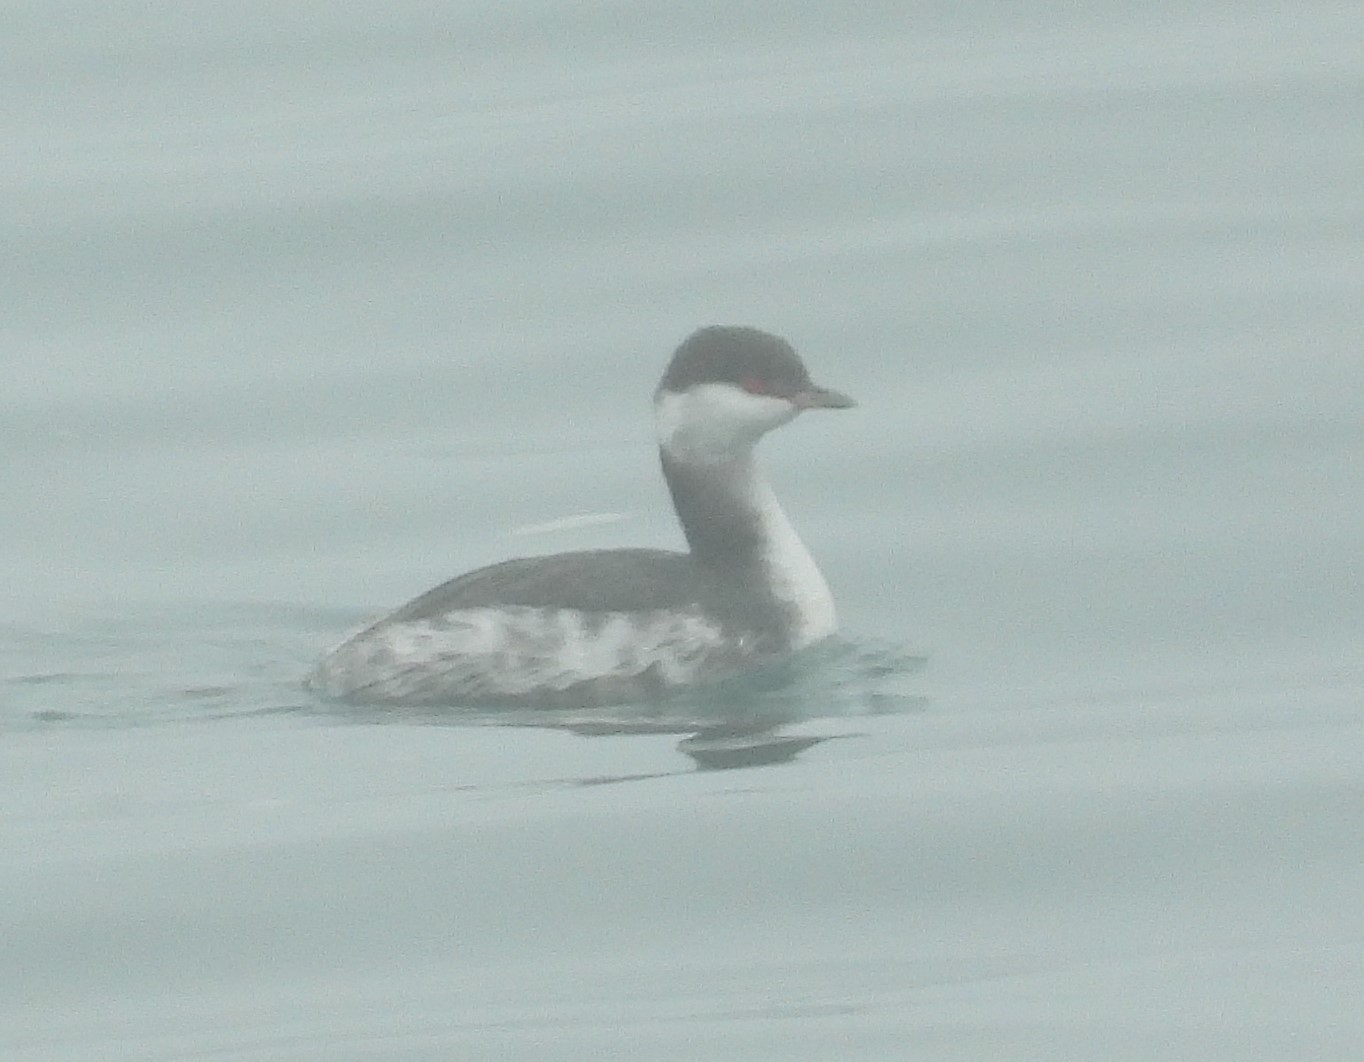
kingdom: Animalia
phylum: Chordata
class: Aves
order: Podicipediformes
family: Podicipedidae
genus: Podiceps
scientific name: Podiceps auritus
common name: Horned grebe
